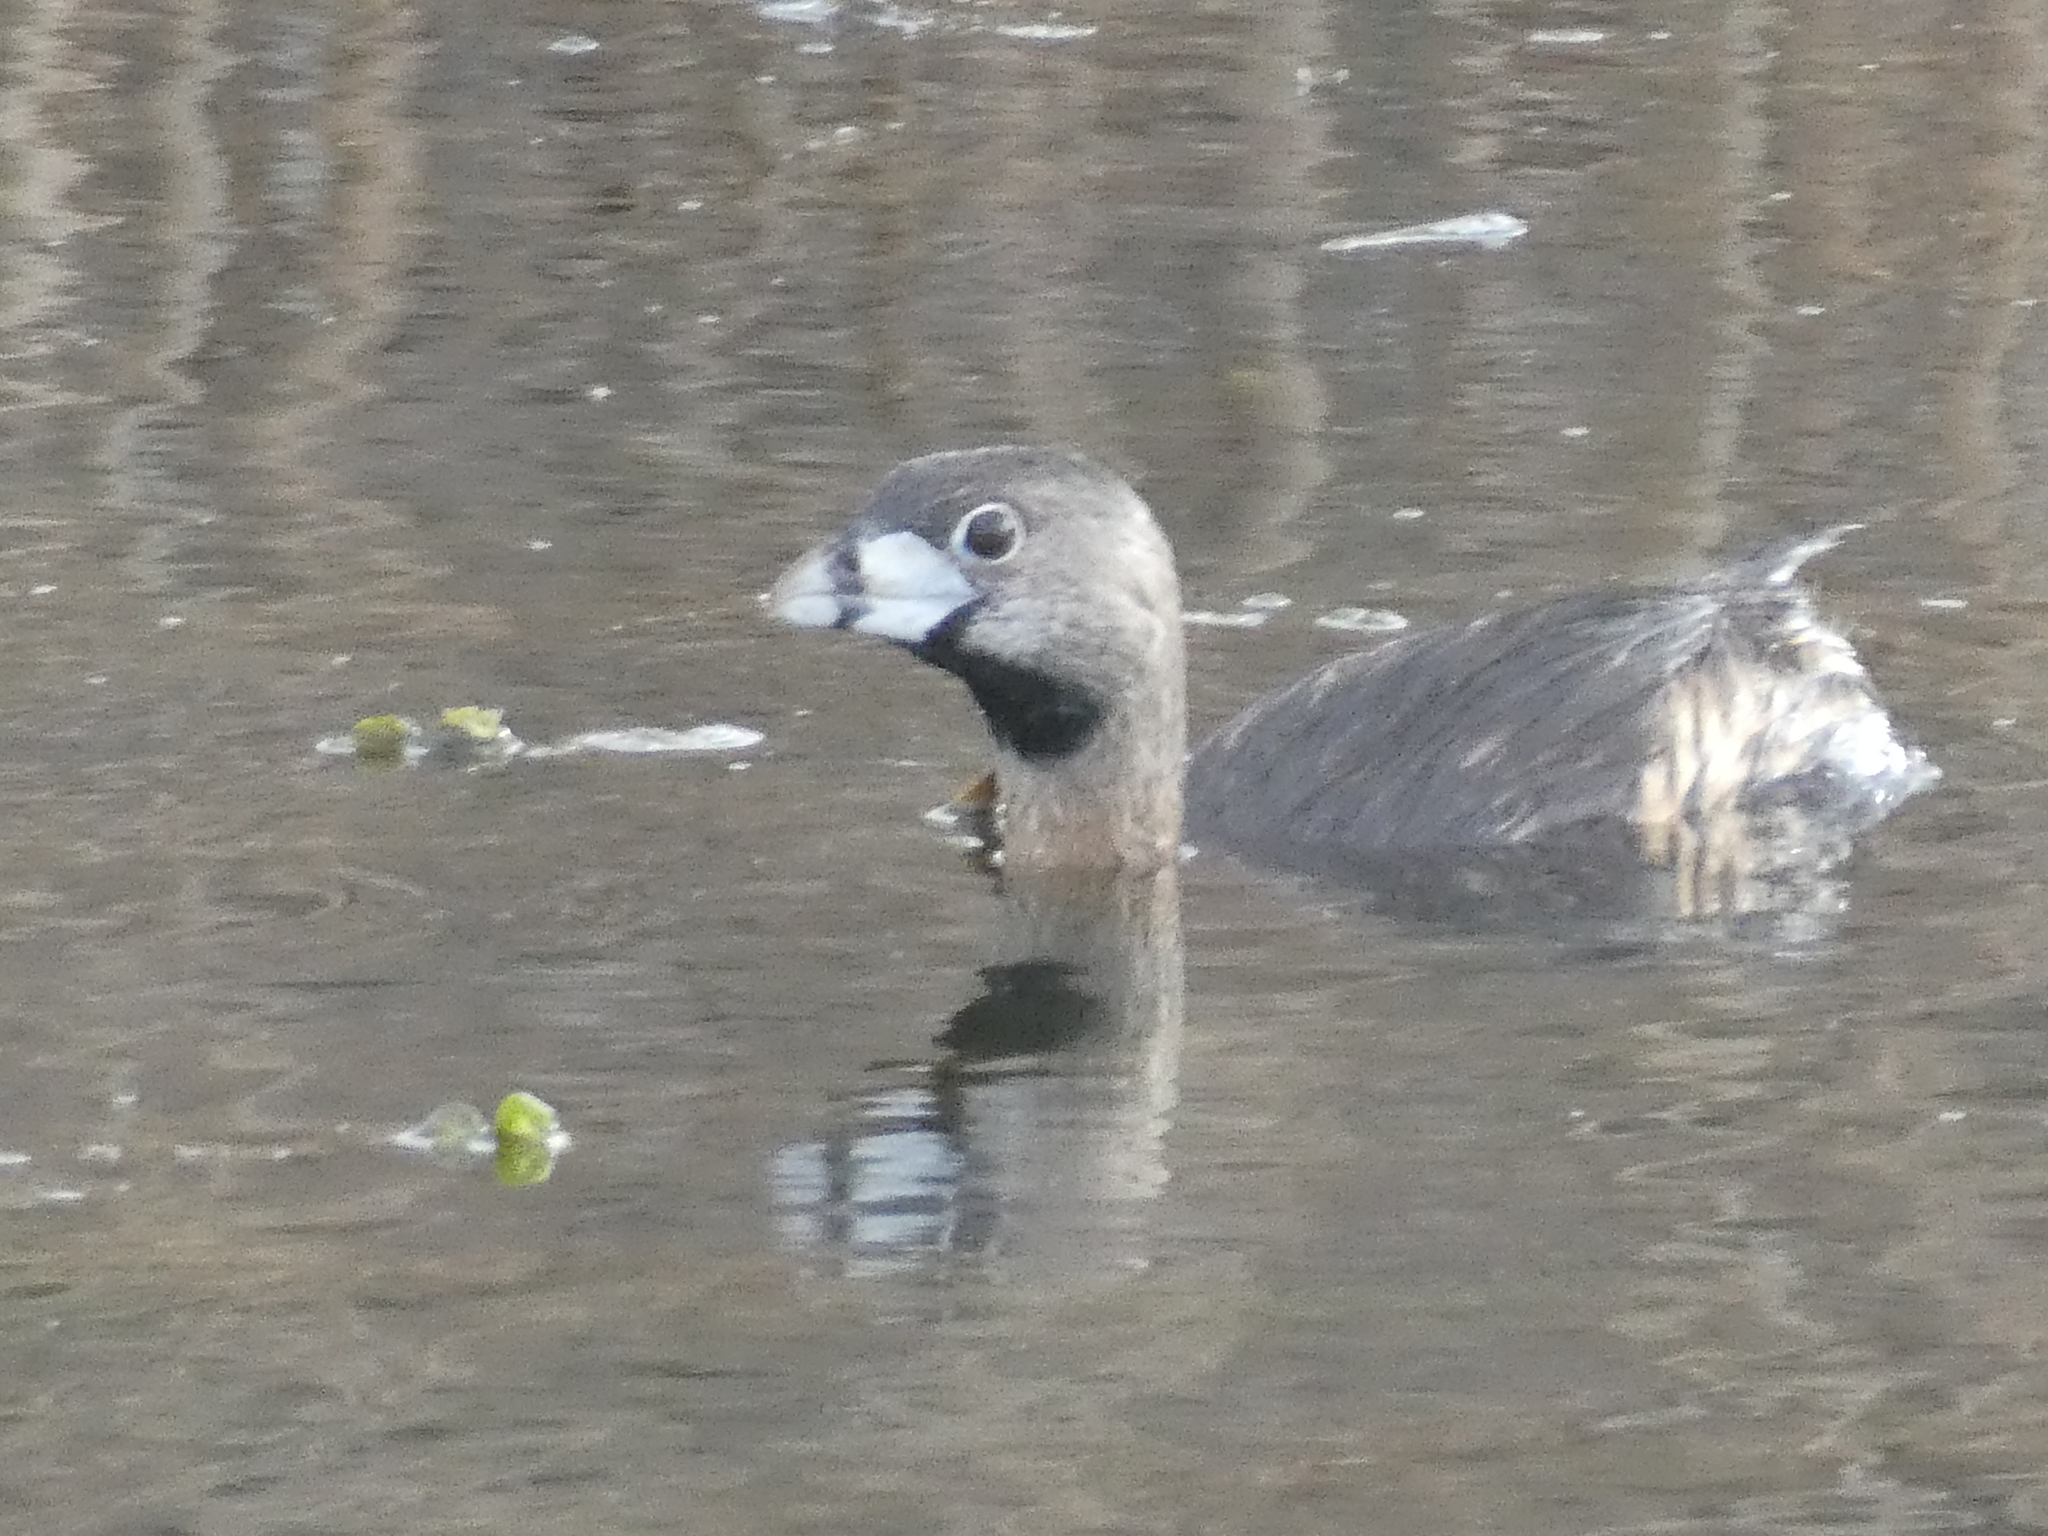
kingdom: Animalia
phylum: Chordata
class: Aves
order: Podicipediformes
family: Podicipedidae
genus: Podilymbus
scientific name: Podilymbus podiceps
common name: Pied-billed grebe
